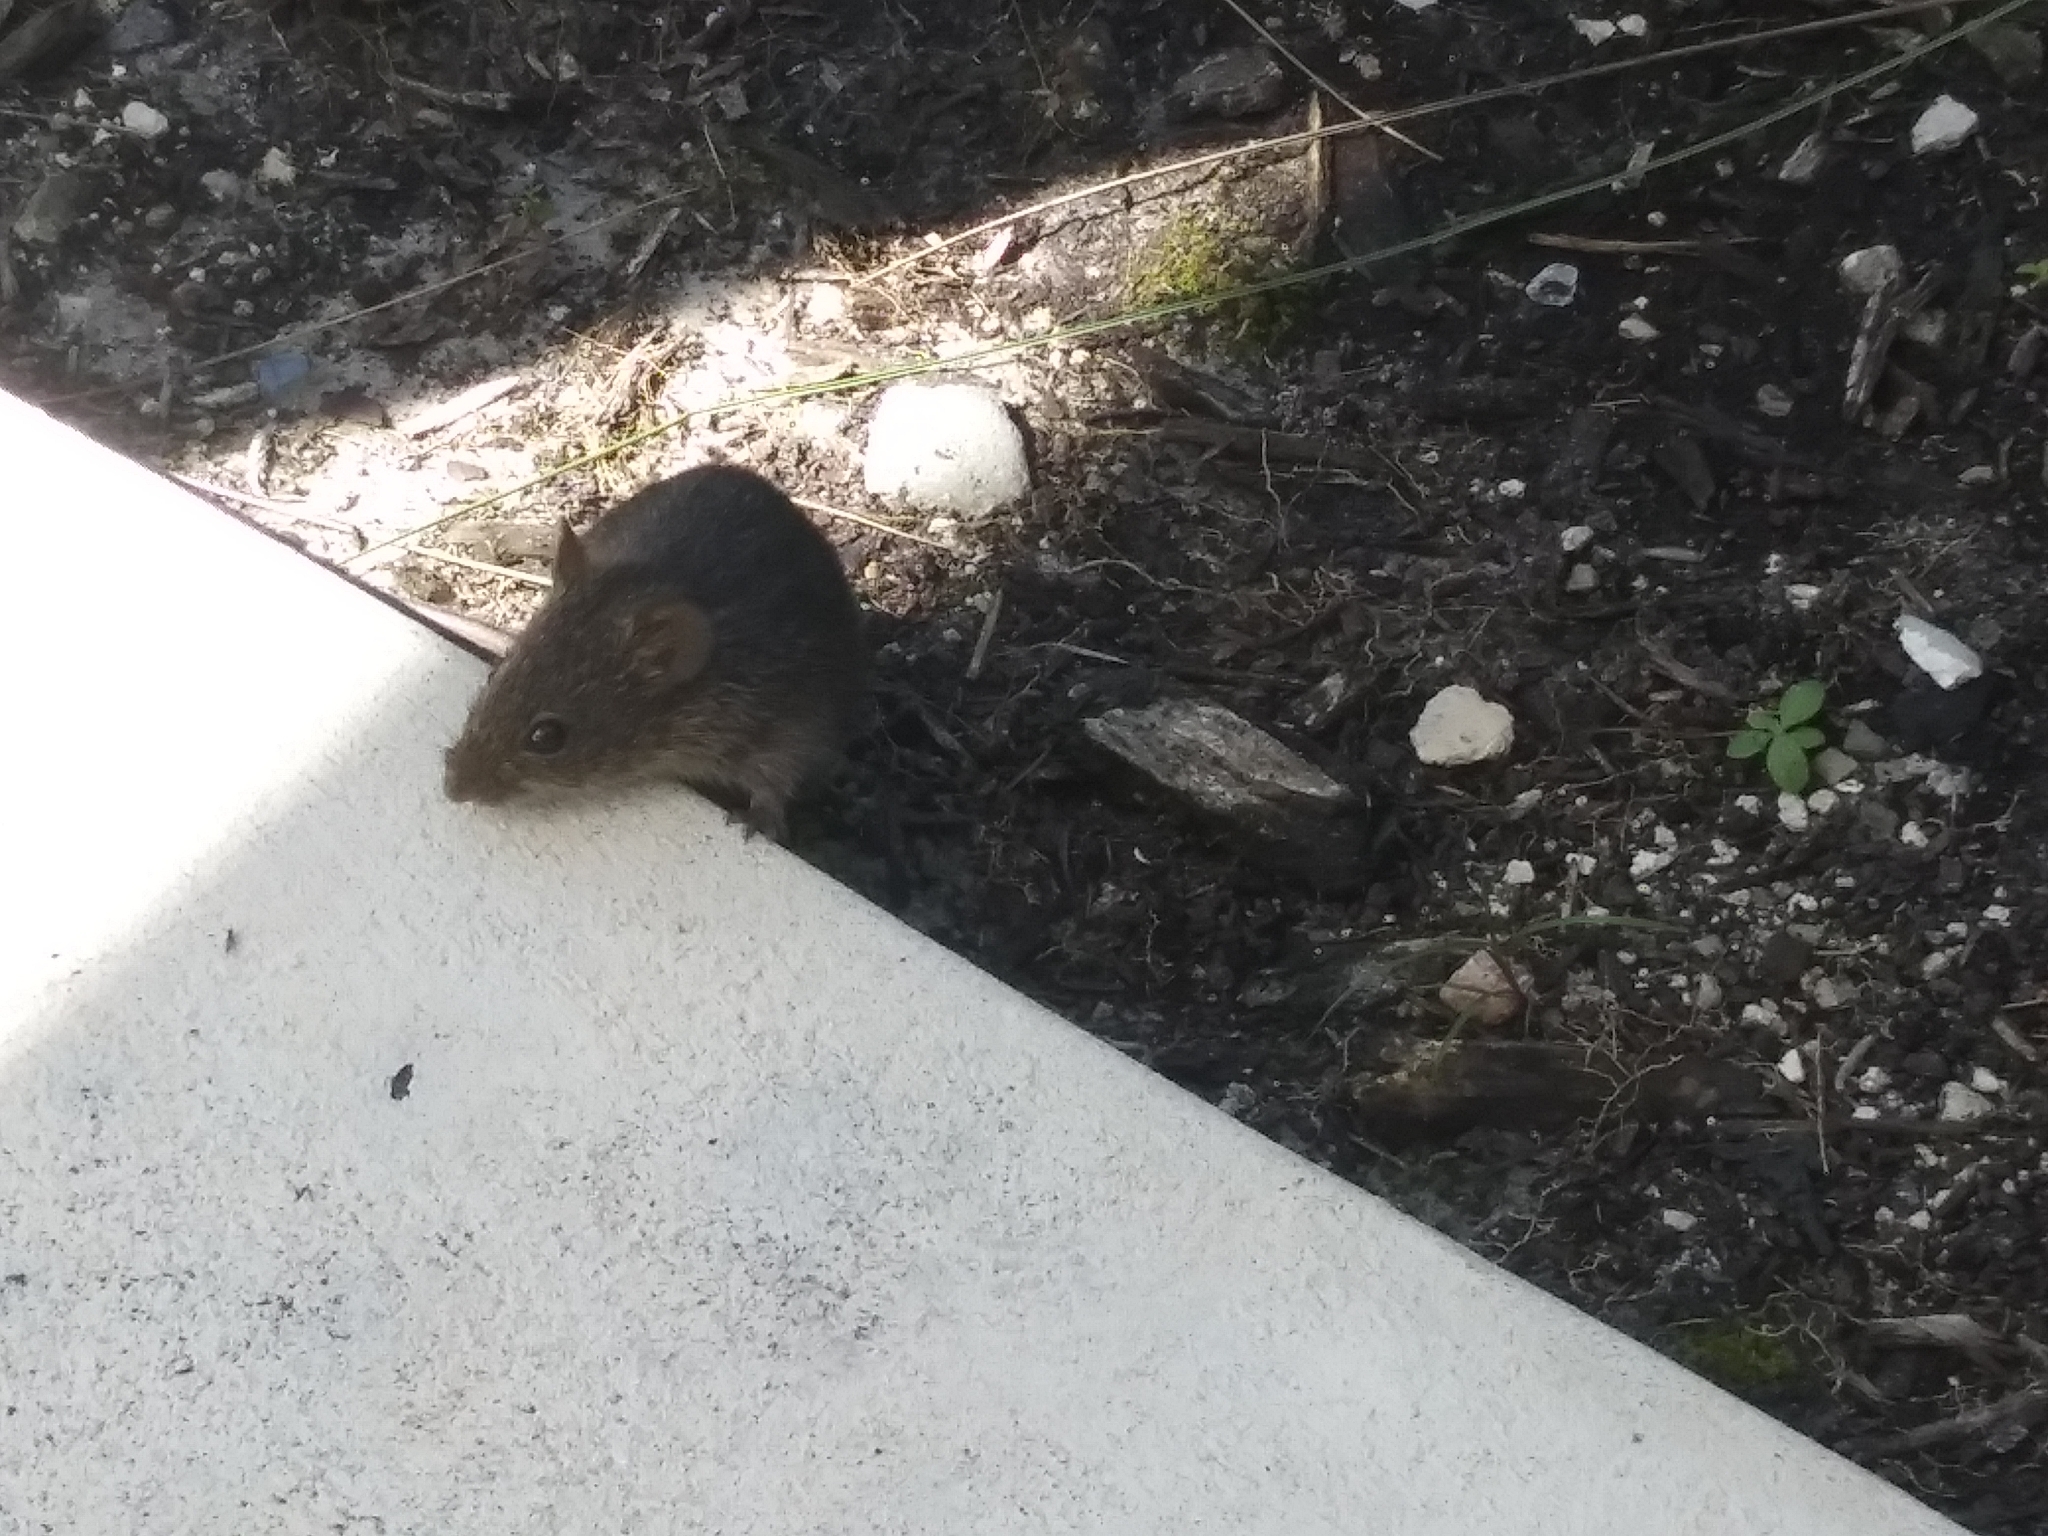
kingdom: Animalia
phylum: Chordata
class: Mammalia
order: Rodentia
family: Cricetidae
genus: Sigmodon
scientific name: Sigmodon hispidus
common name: Hispid cotton rat
